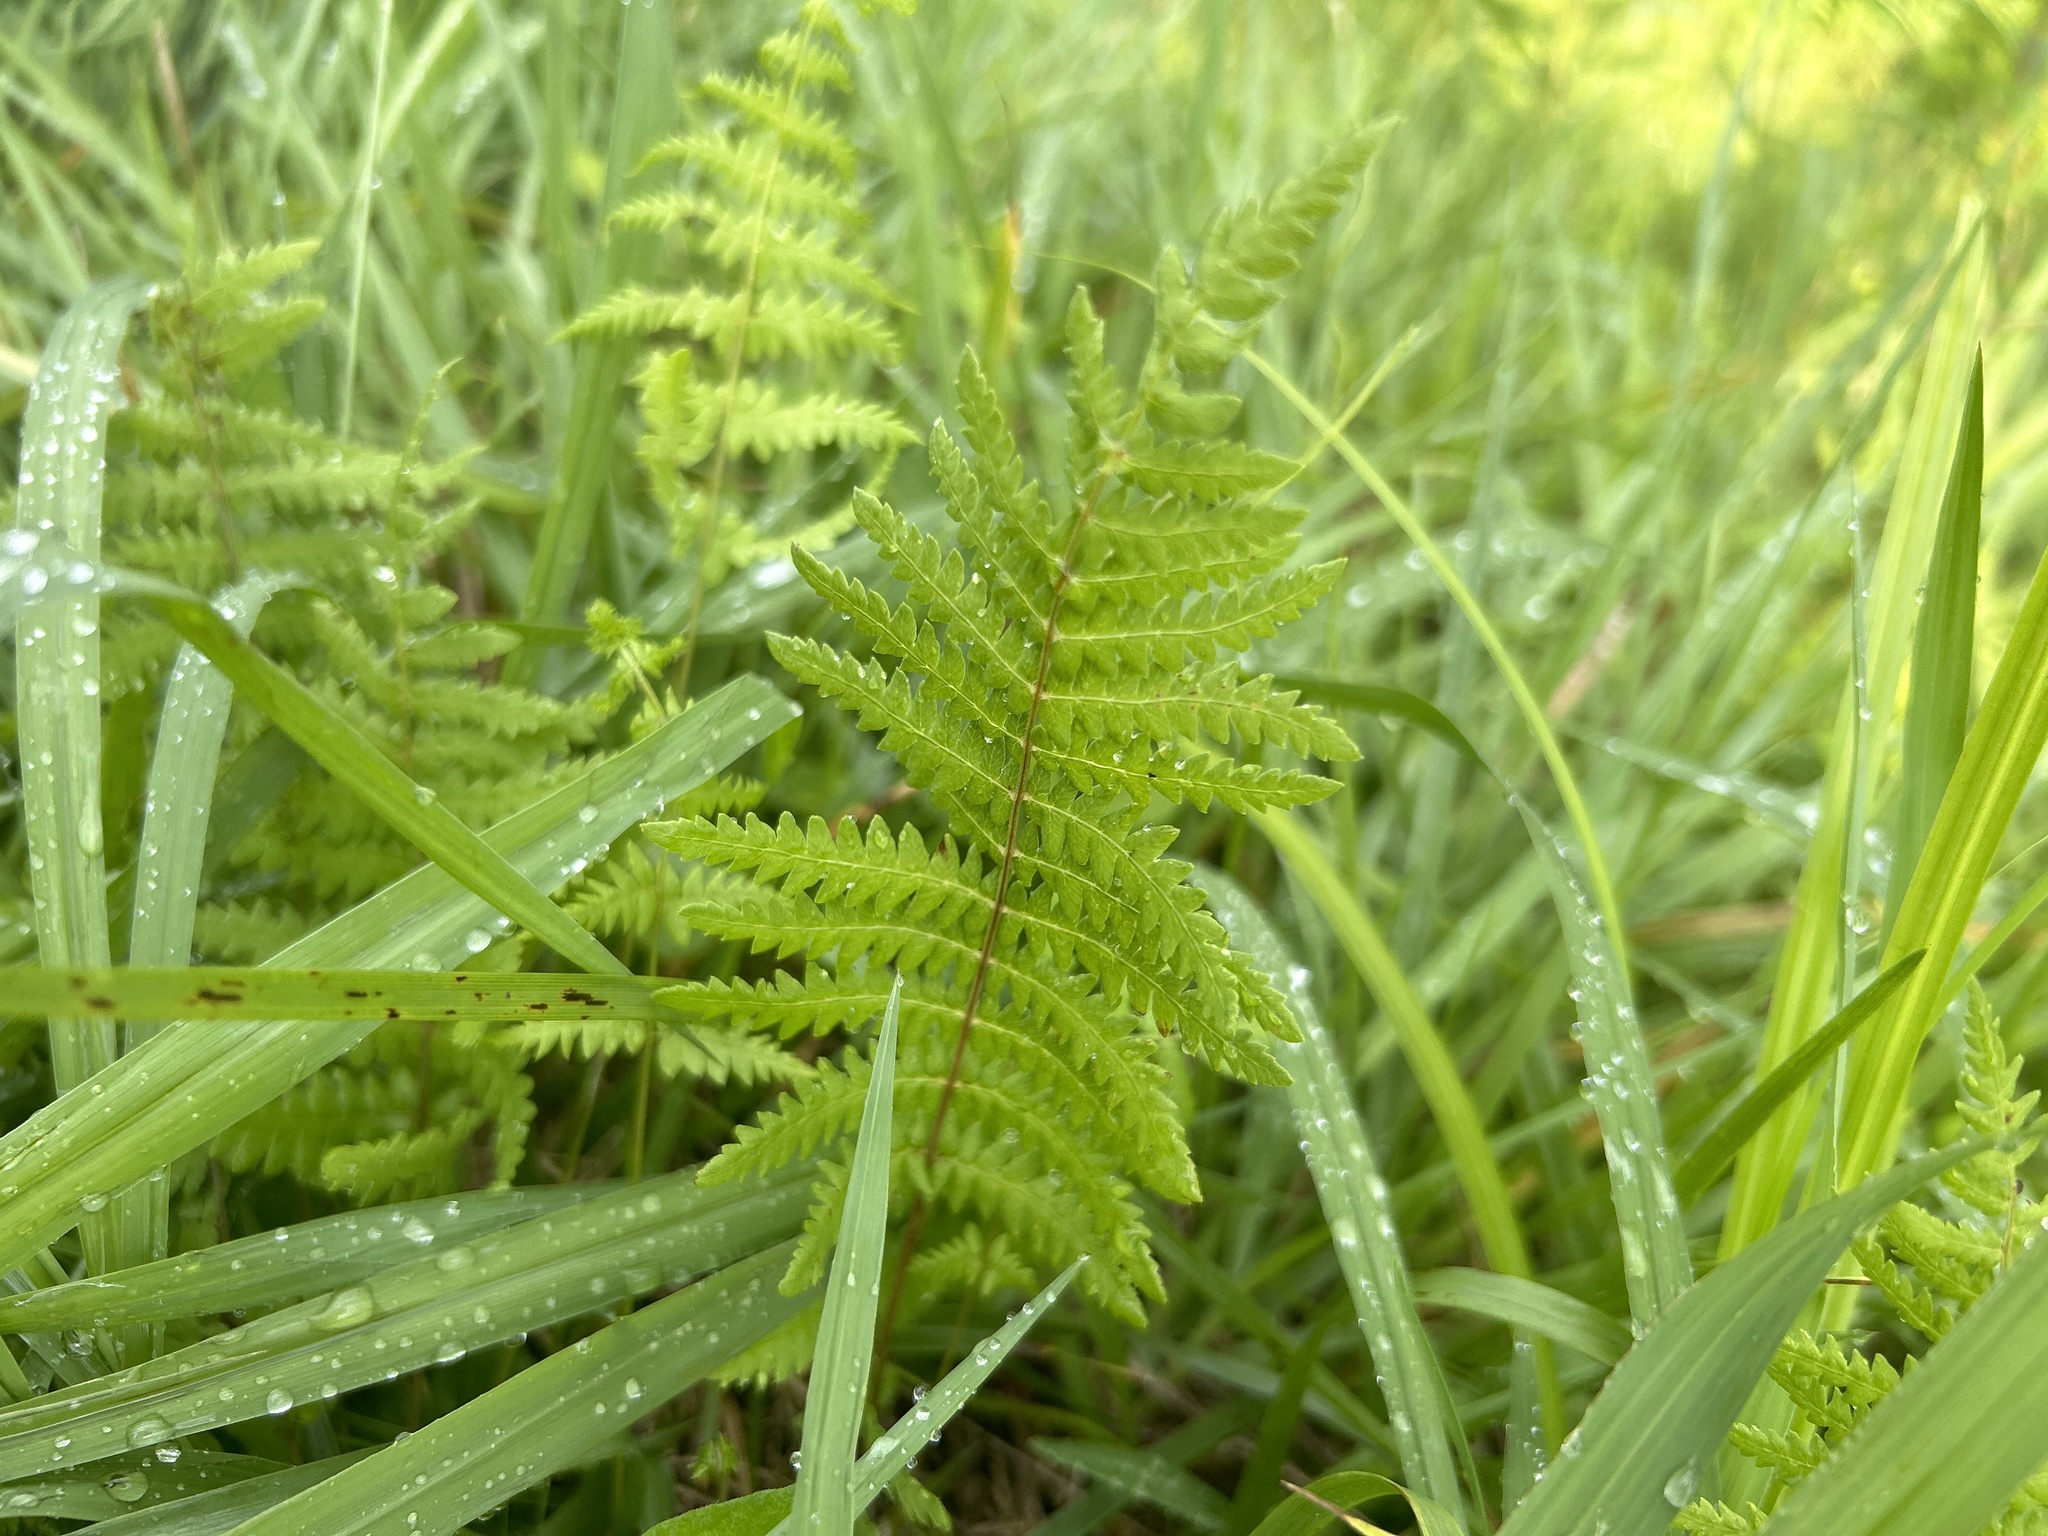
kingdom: Plantae
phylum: Tracheophyta
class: Polypodiopsida
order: Polypodiales
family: Thelypteridaceae
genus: Thelypteris
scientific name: Thelypteris palustris
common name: Marsh fern
